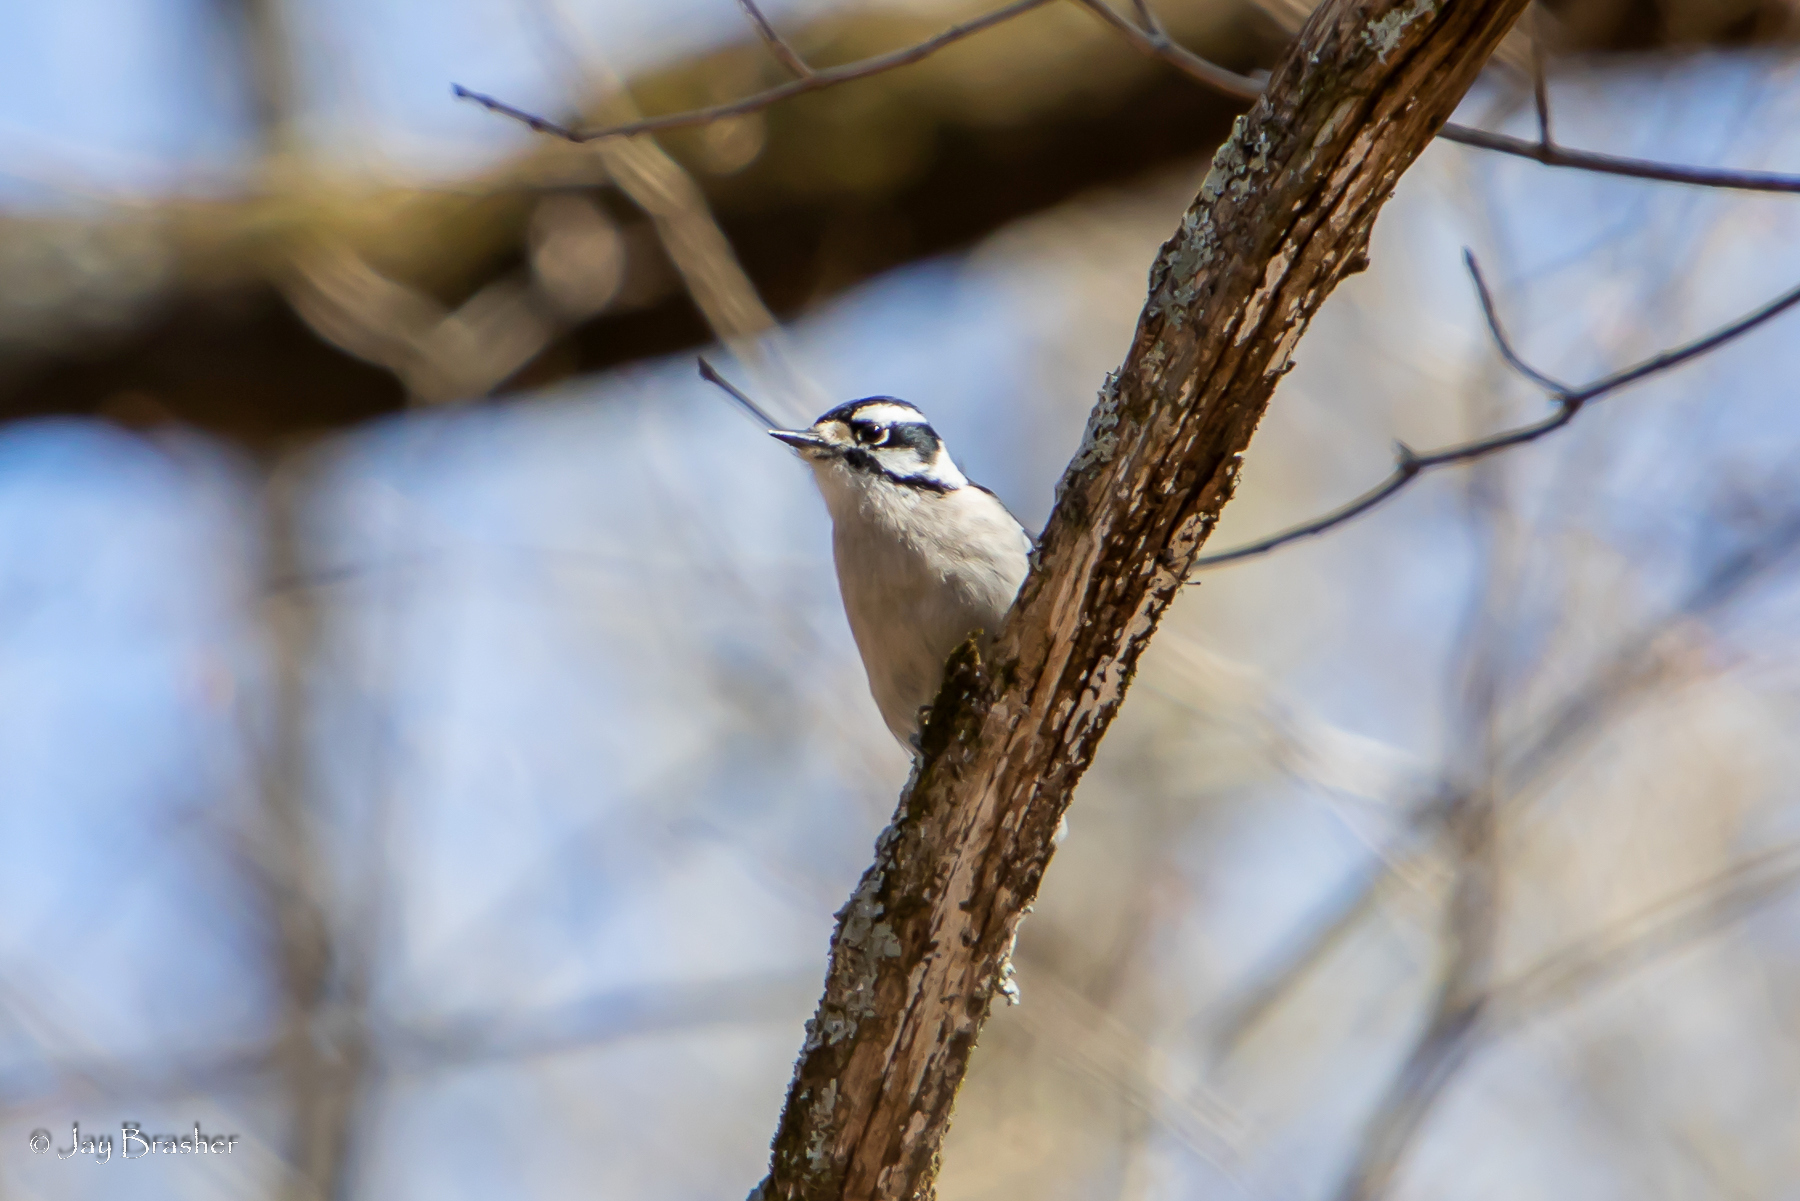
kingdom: Animalia
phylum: Chordata
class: Aves
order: Piciformes
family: Picidae
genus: Dryobates
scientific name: Dryobates pubescens
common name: Downy woodpecker
